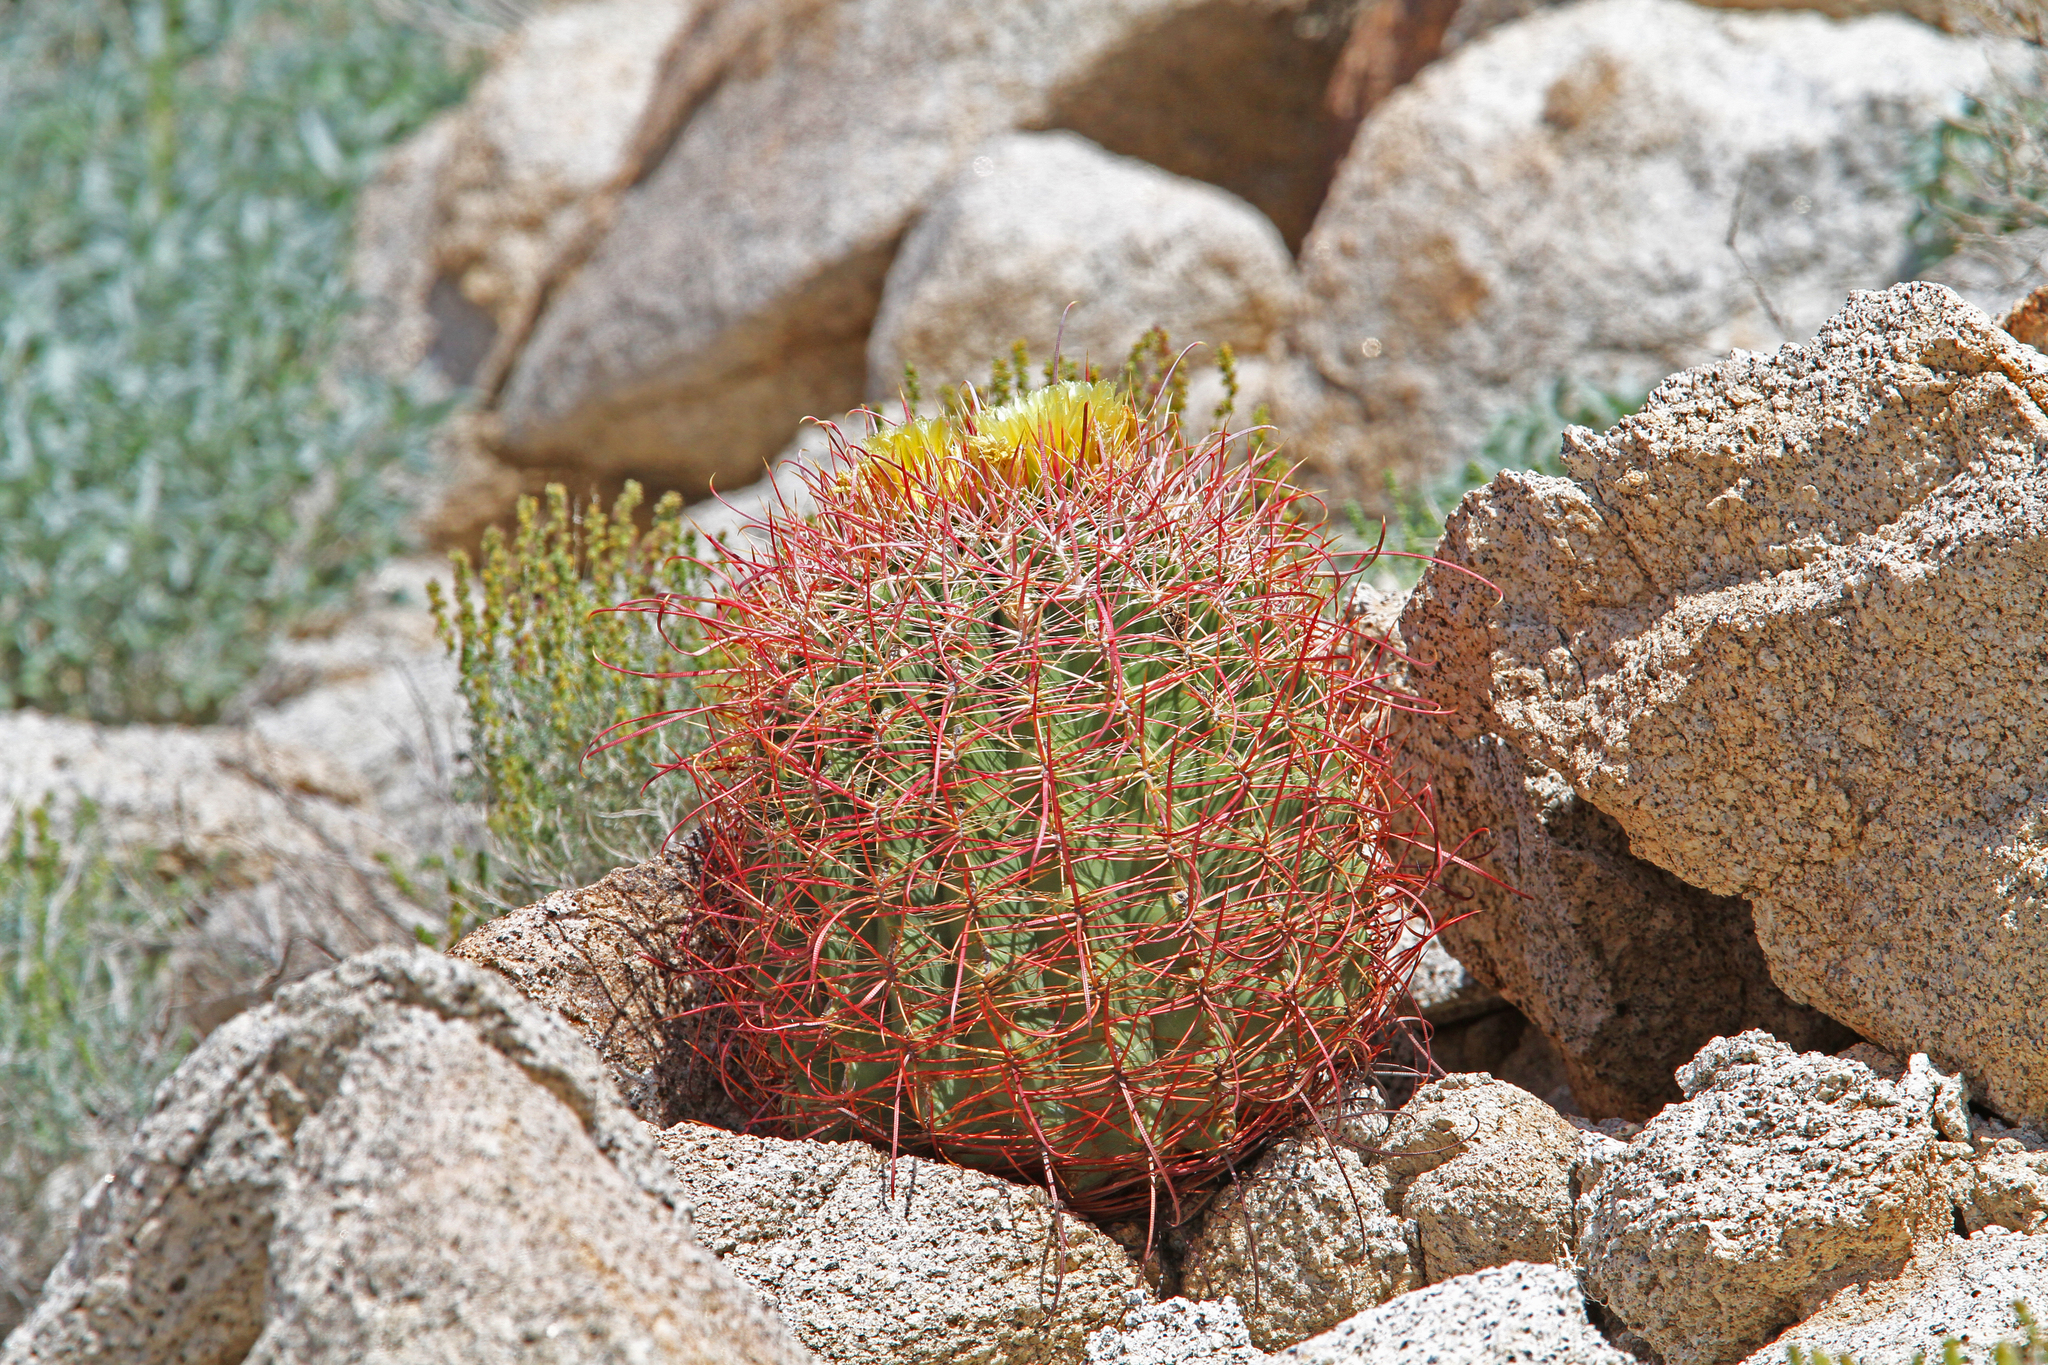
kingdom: Plantae
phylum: Tracheophyta
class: Magnoliopsida
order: Caryophyllales
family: Cactaceae
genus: Ferocactus
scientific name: Ferocactus cylindraceus
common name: California barrel cactus
